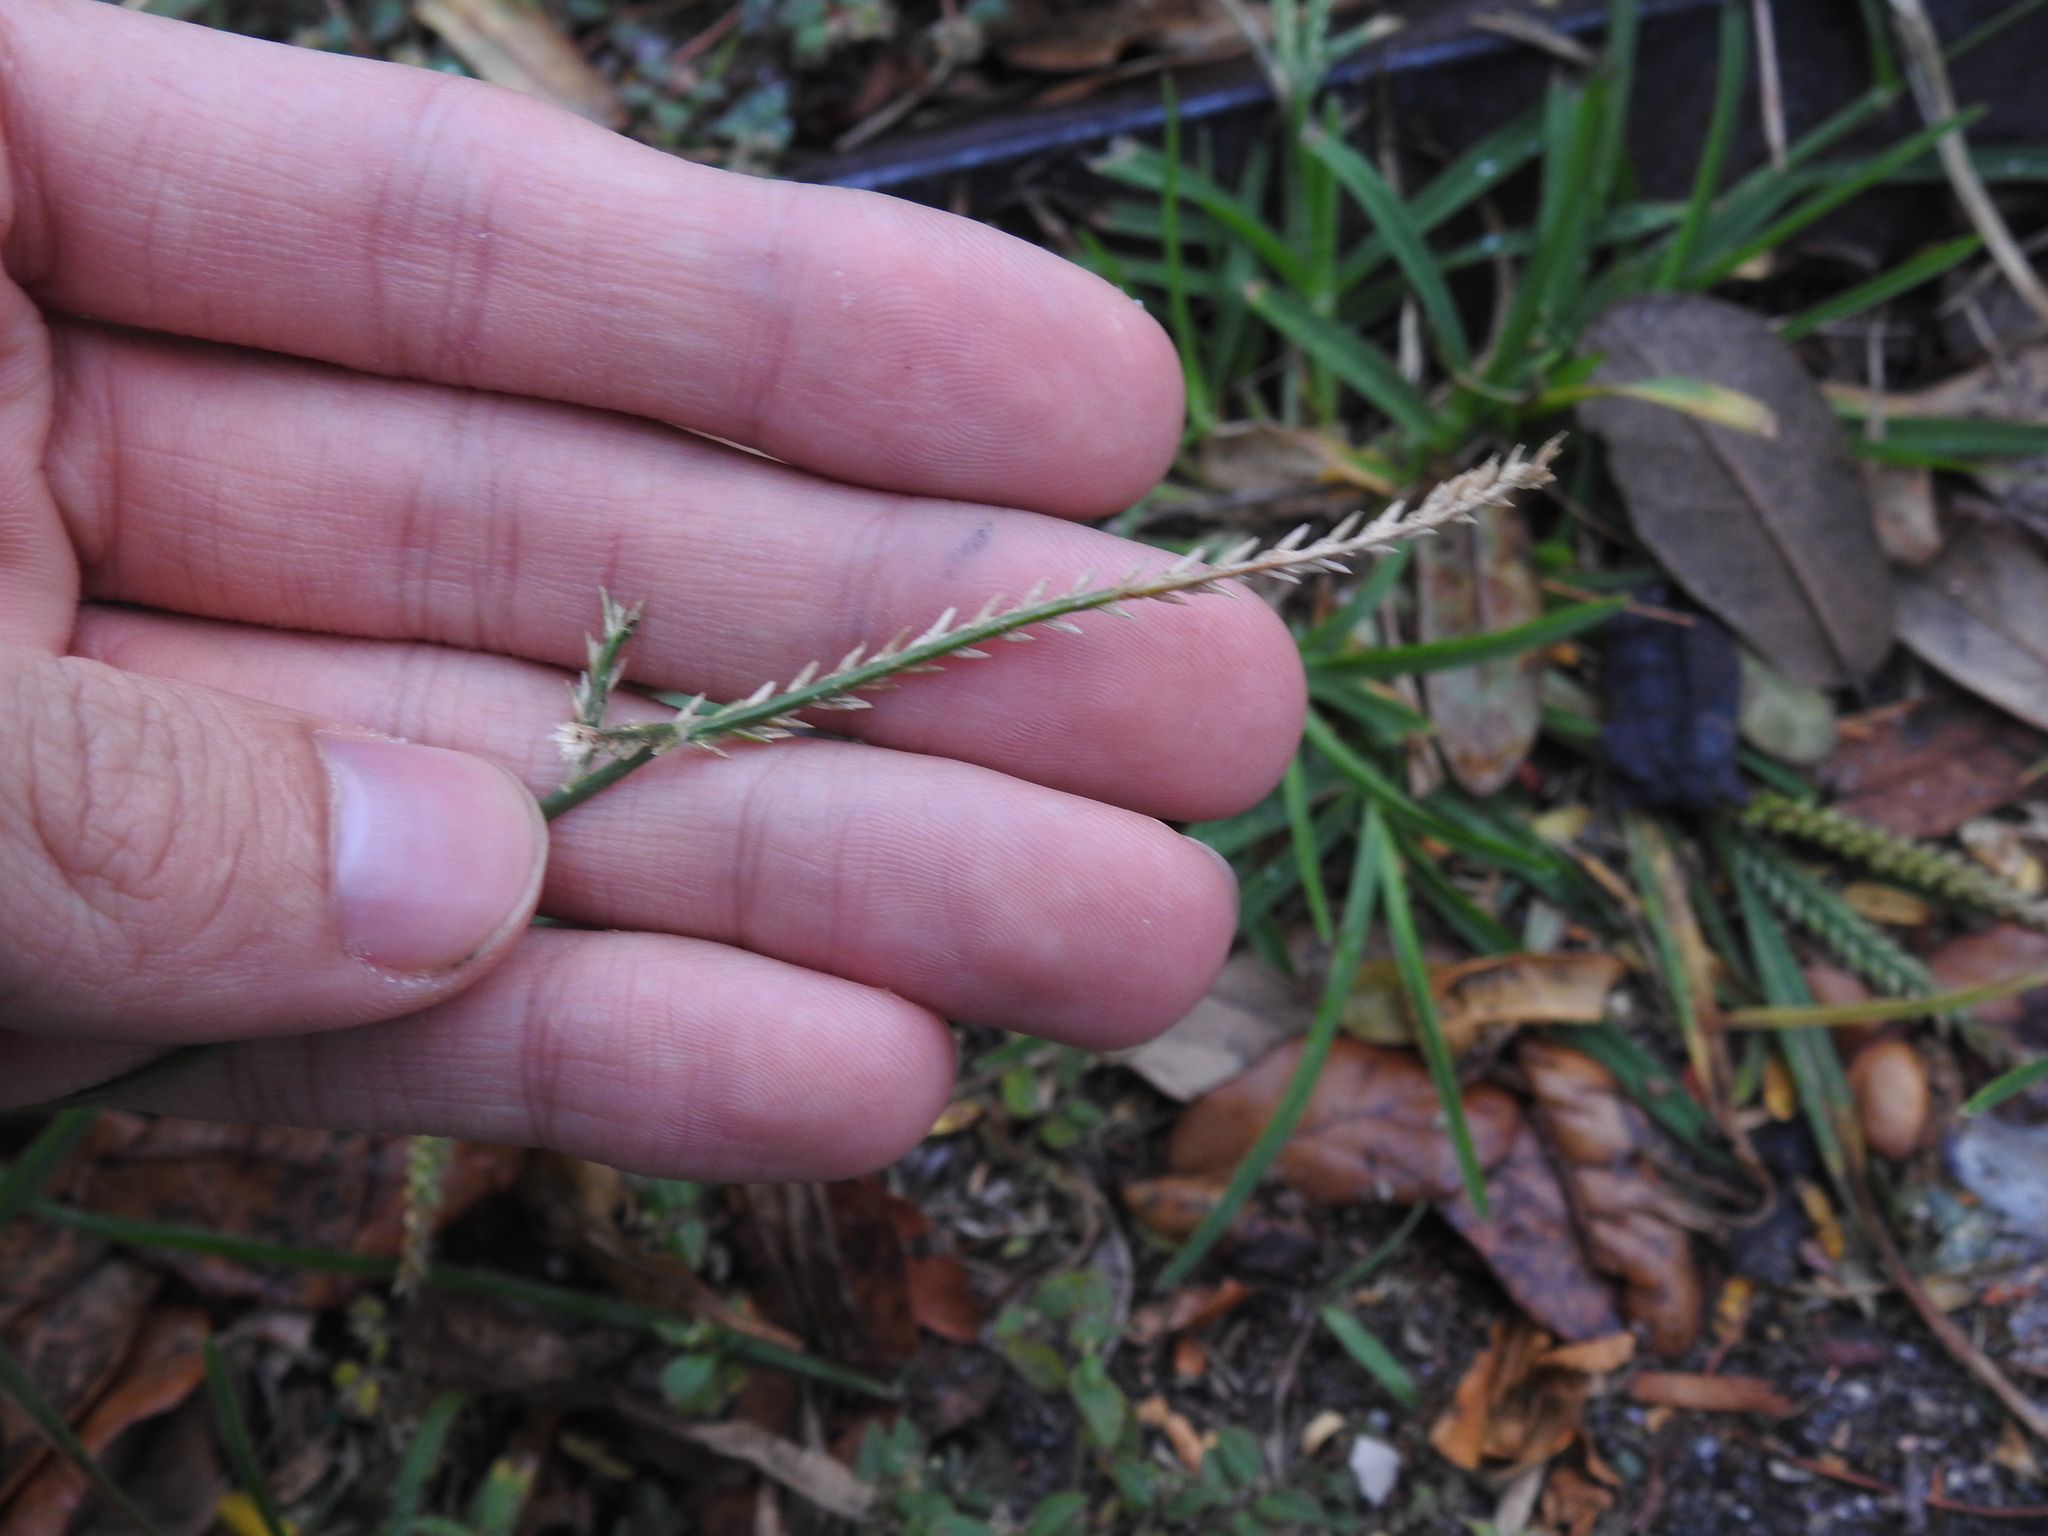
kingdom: Plantae
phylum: Tracheophyta
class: Liliopsida
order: Poales
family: Poaceae
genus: Eleusine
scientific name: Eleusine indica
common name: Yard-grass
